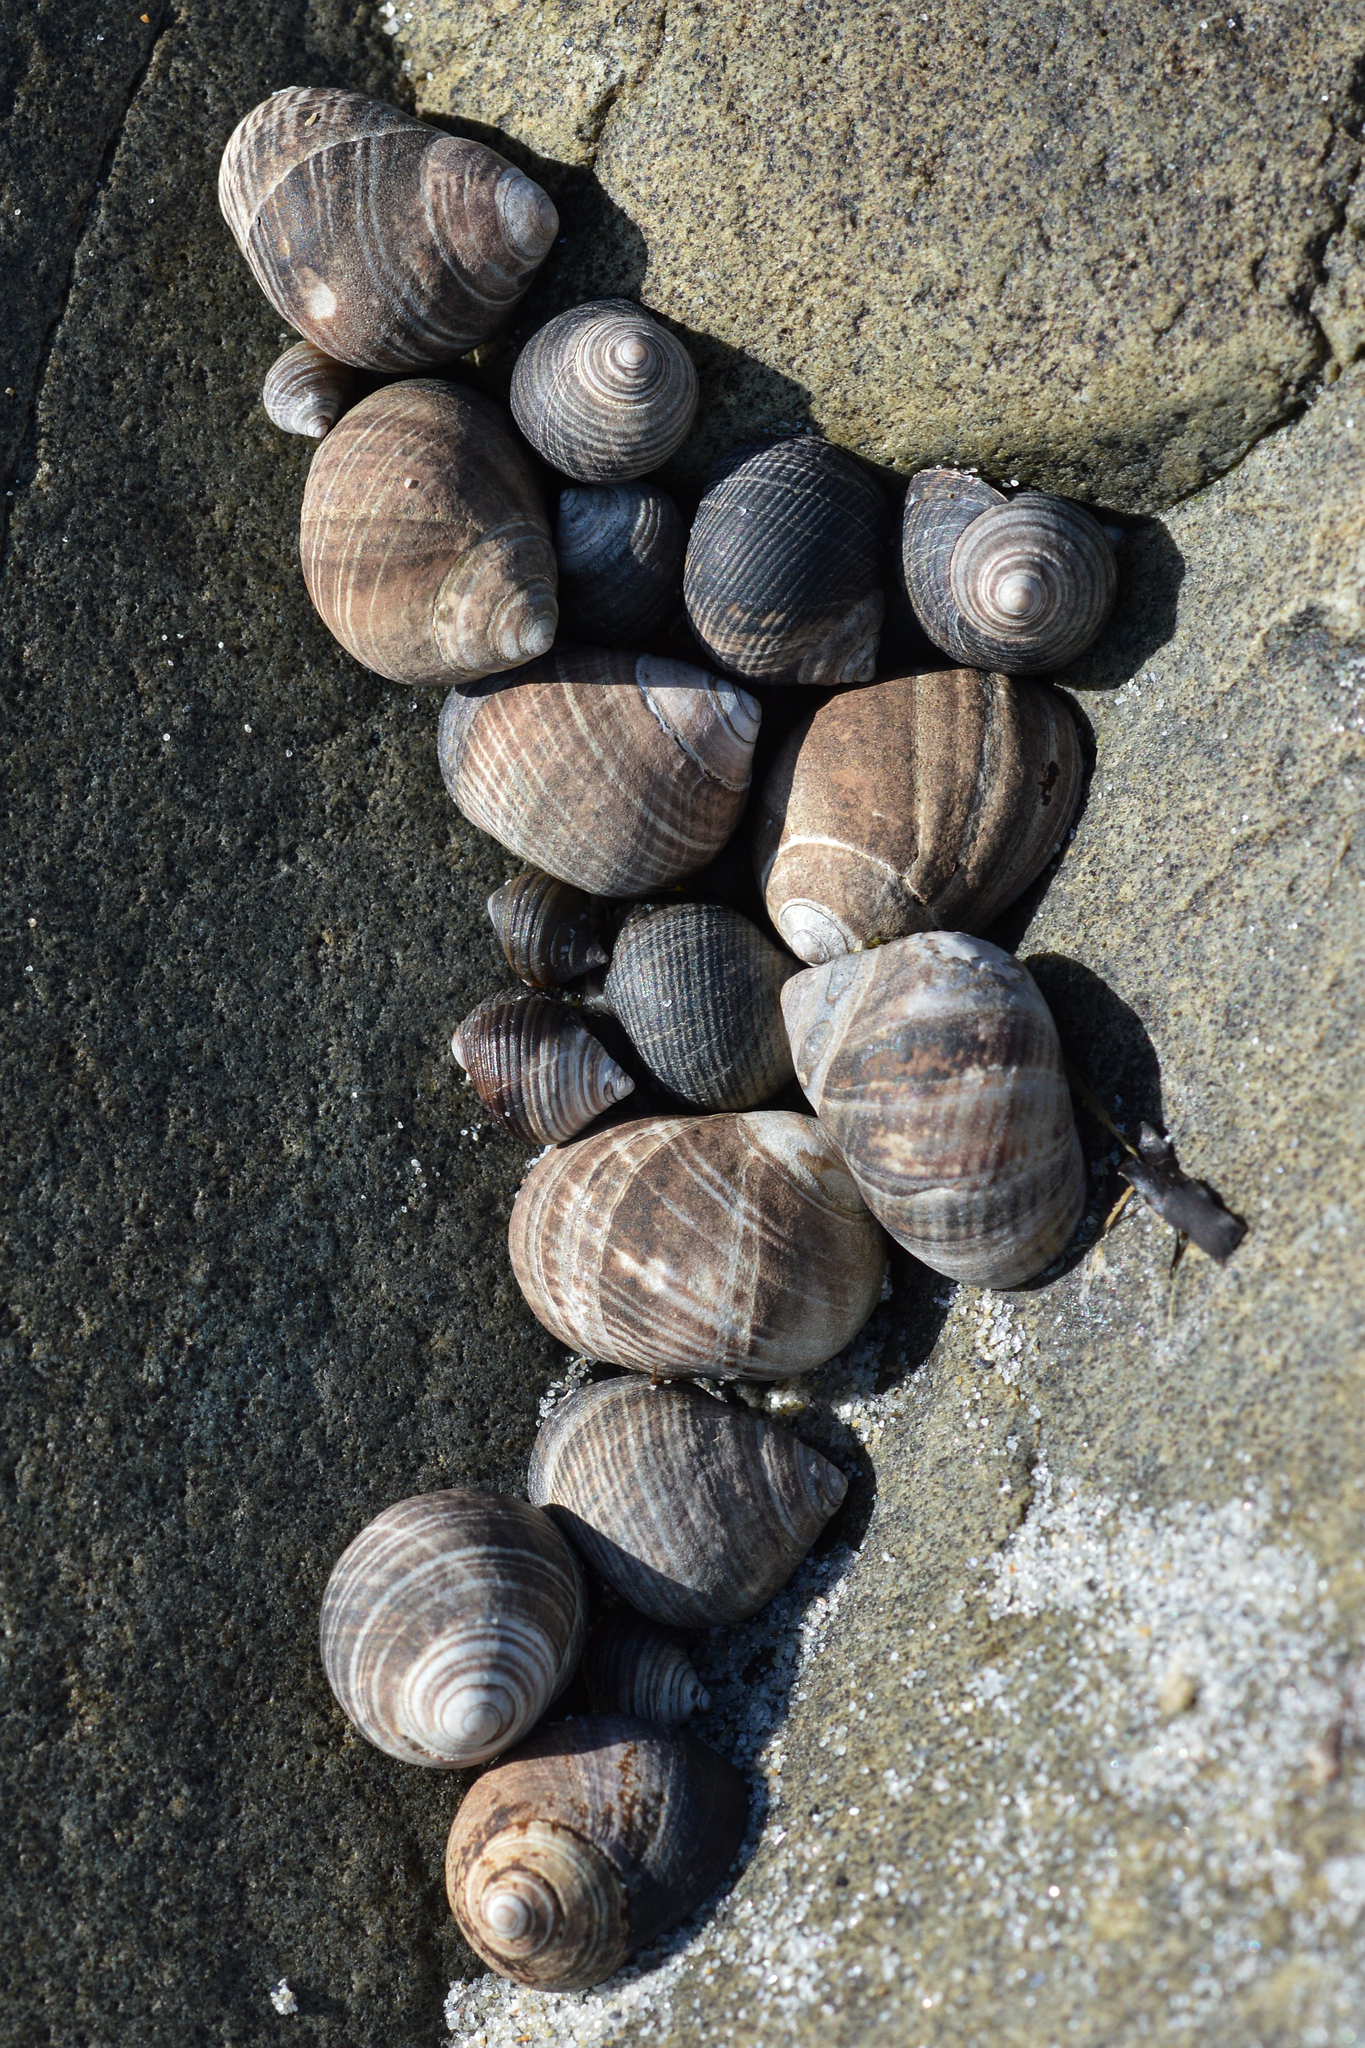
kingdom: Animalia
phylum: Mollusca
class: Gastropoda
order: Littorinimorpha
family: Littorinidae
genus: Littorina
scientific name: Littorina littorea
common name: Common periwinkle
